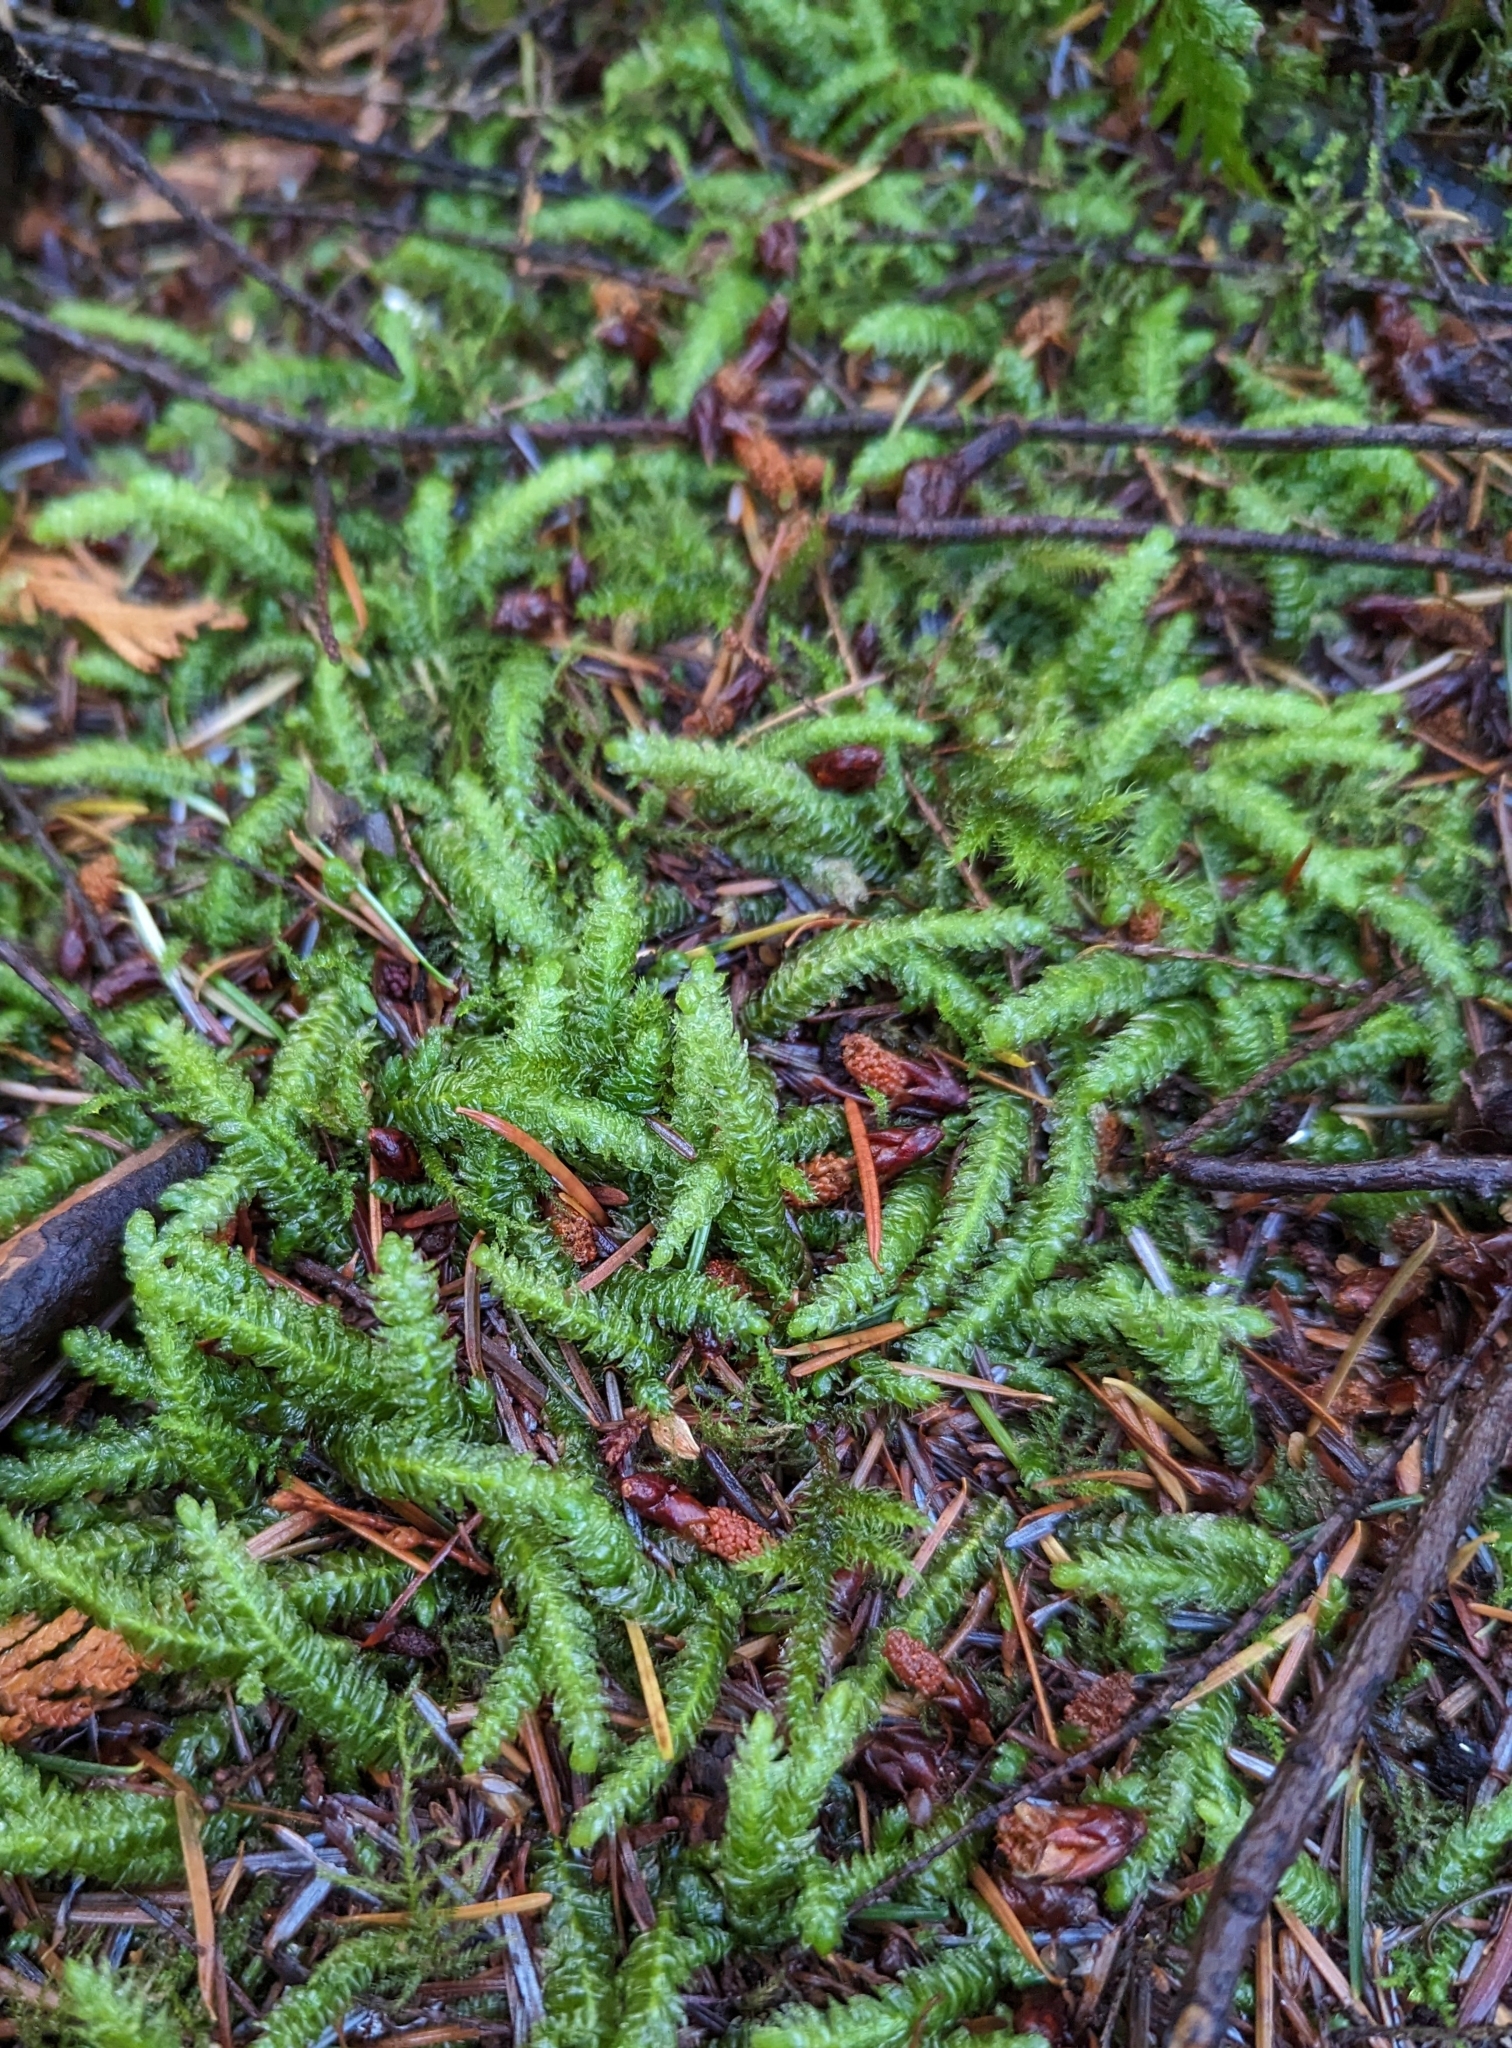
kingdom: Plantae
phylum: Bryophyta
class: Bryopsida
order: Hypnales
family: Plagiotheciaceae
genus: Plagiothecium
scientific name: Plagiothecium undulatum
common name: Waved silk-moss
